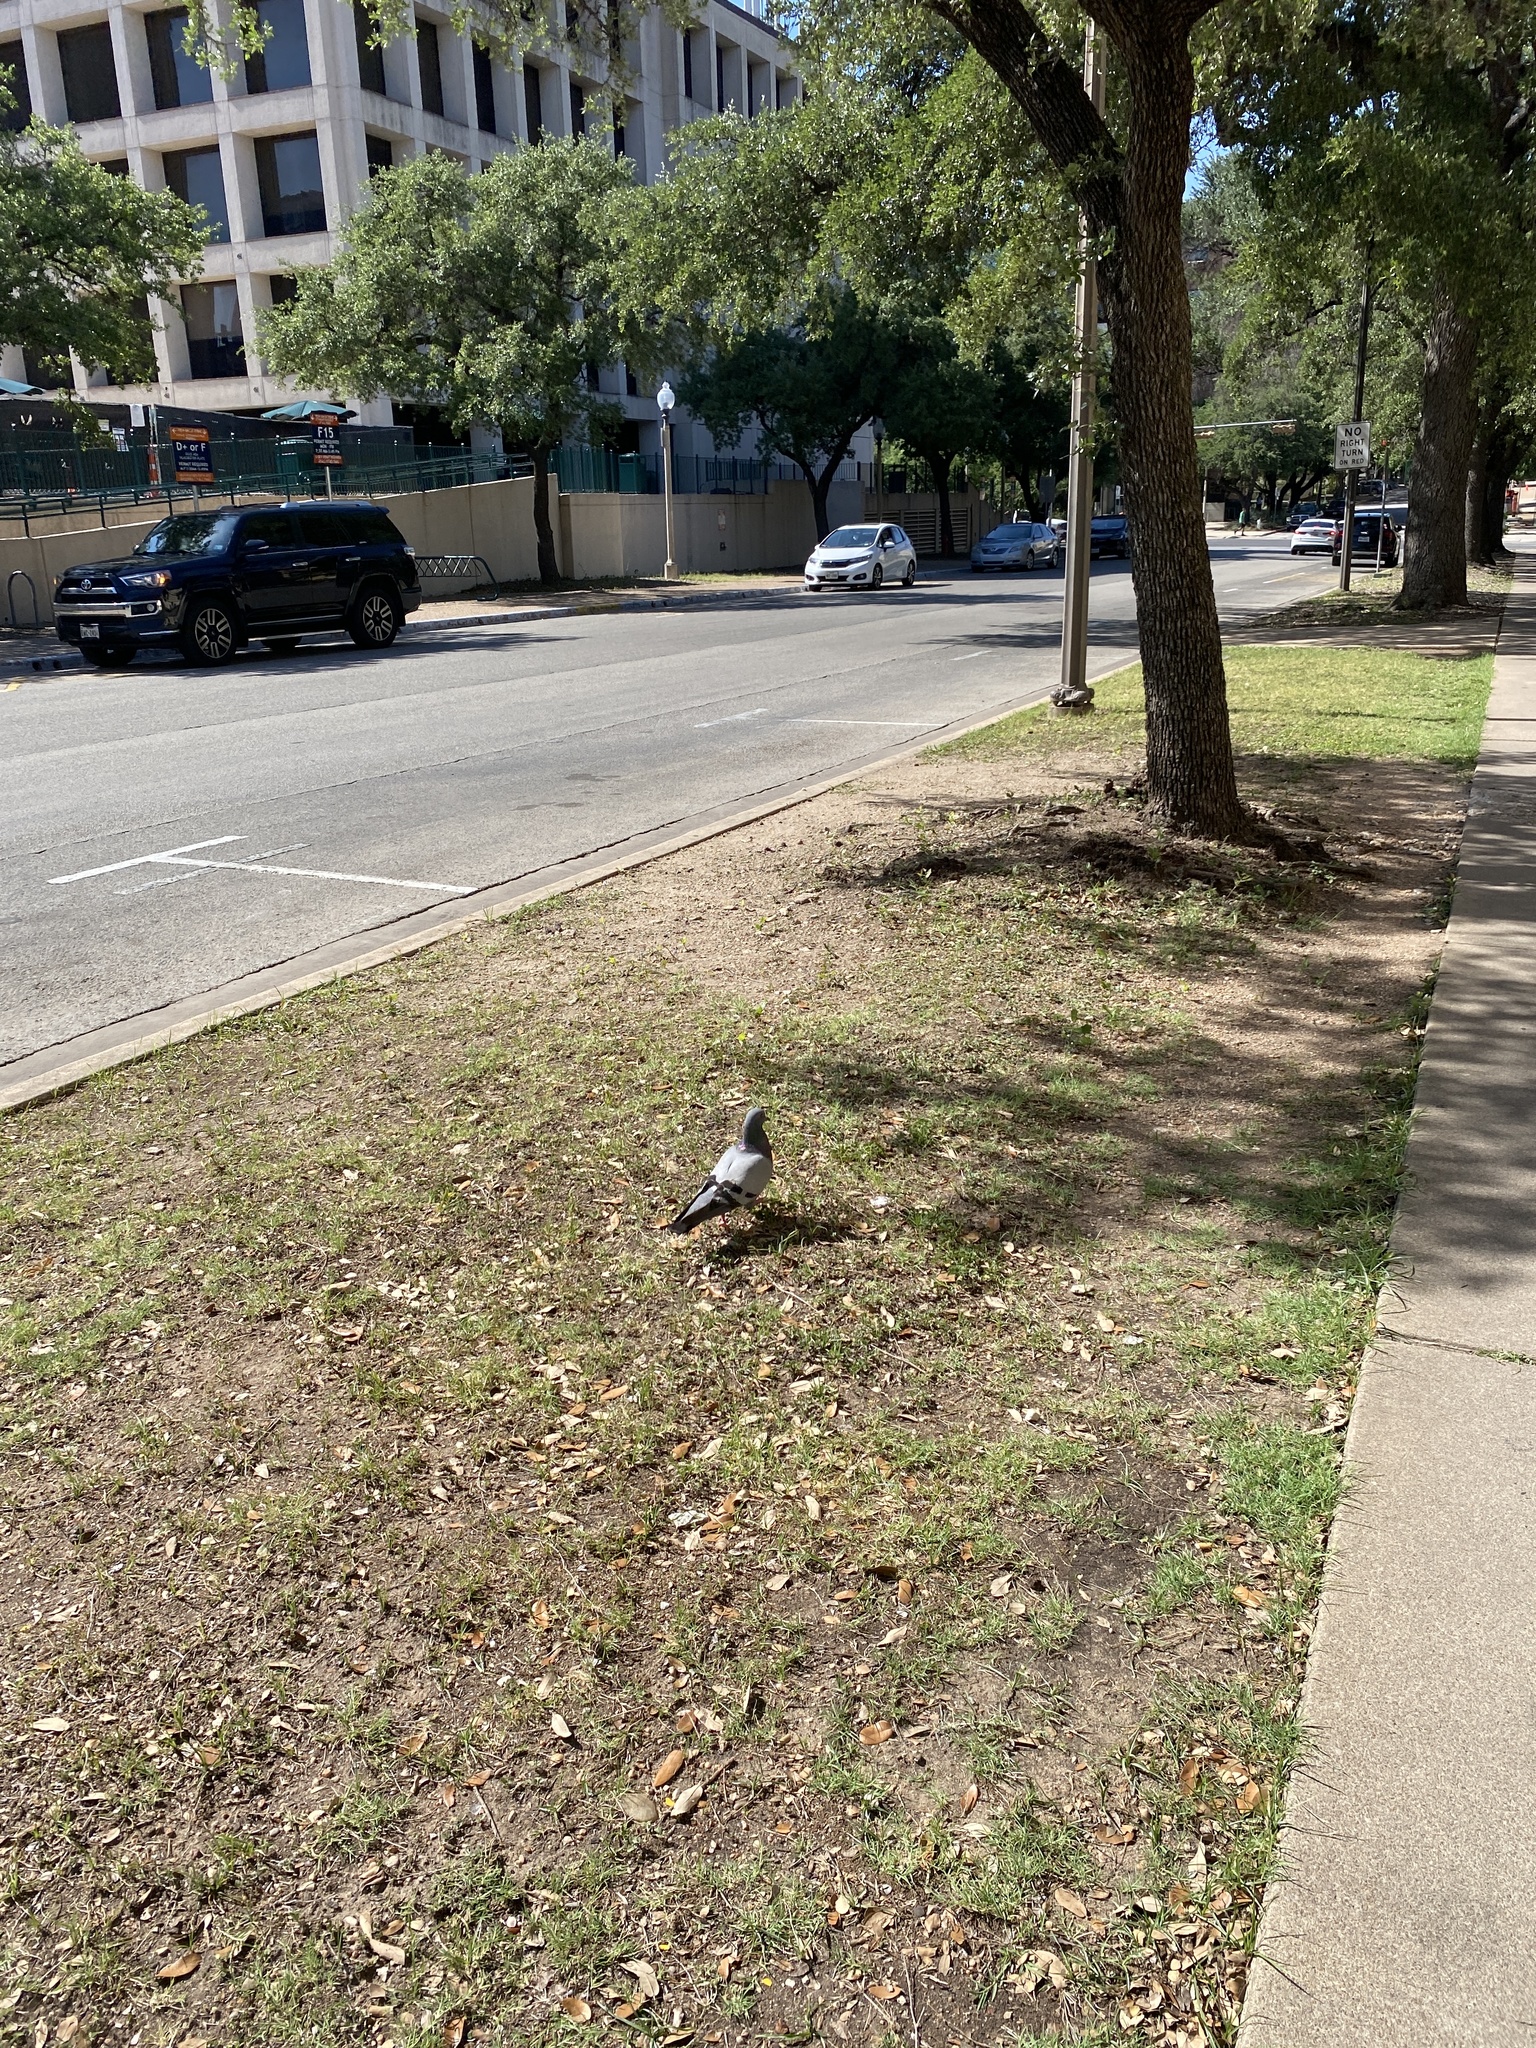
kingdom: Animalia
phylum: Chordata
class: Aves
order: Columbiformes
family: Columbidae
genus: Columba
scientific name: Columba livia
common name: Rock pigeon
